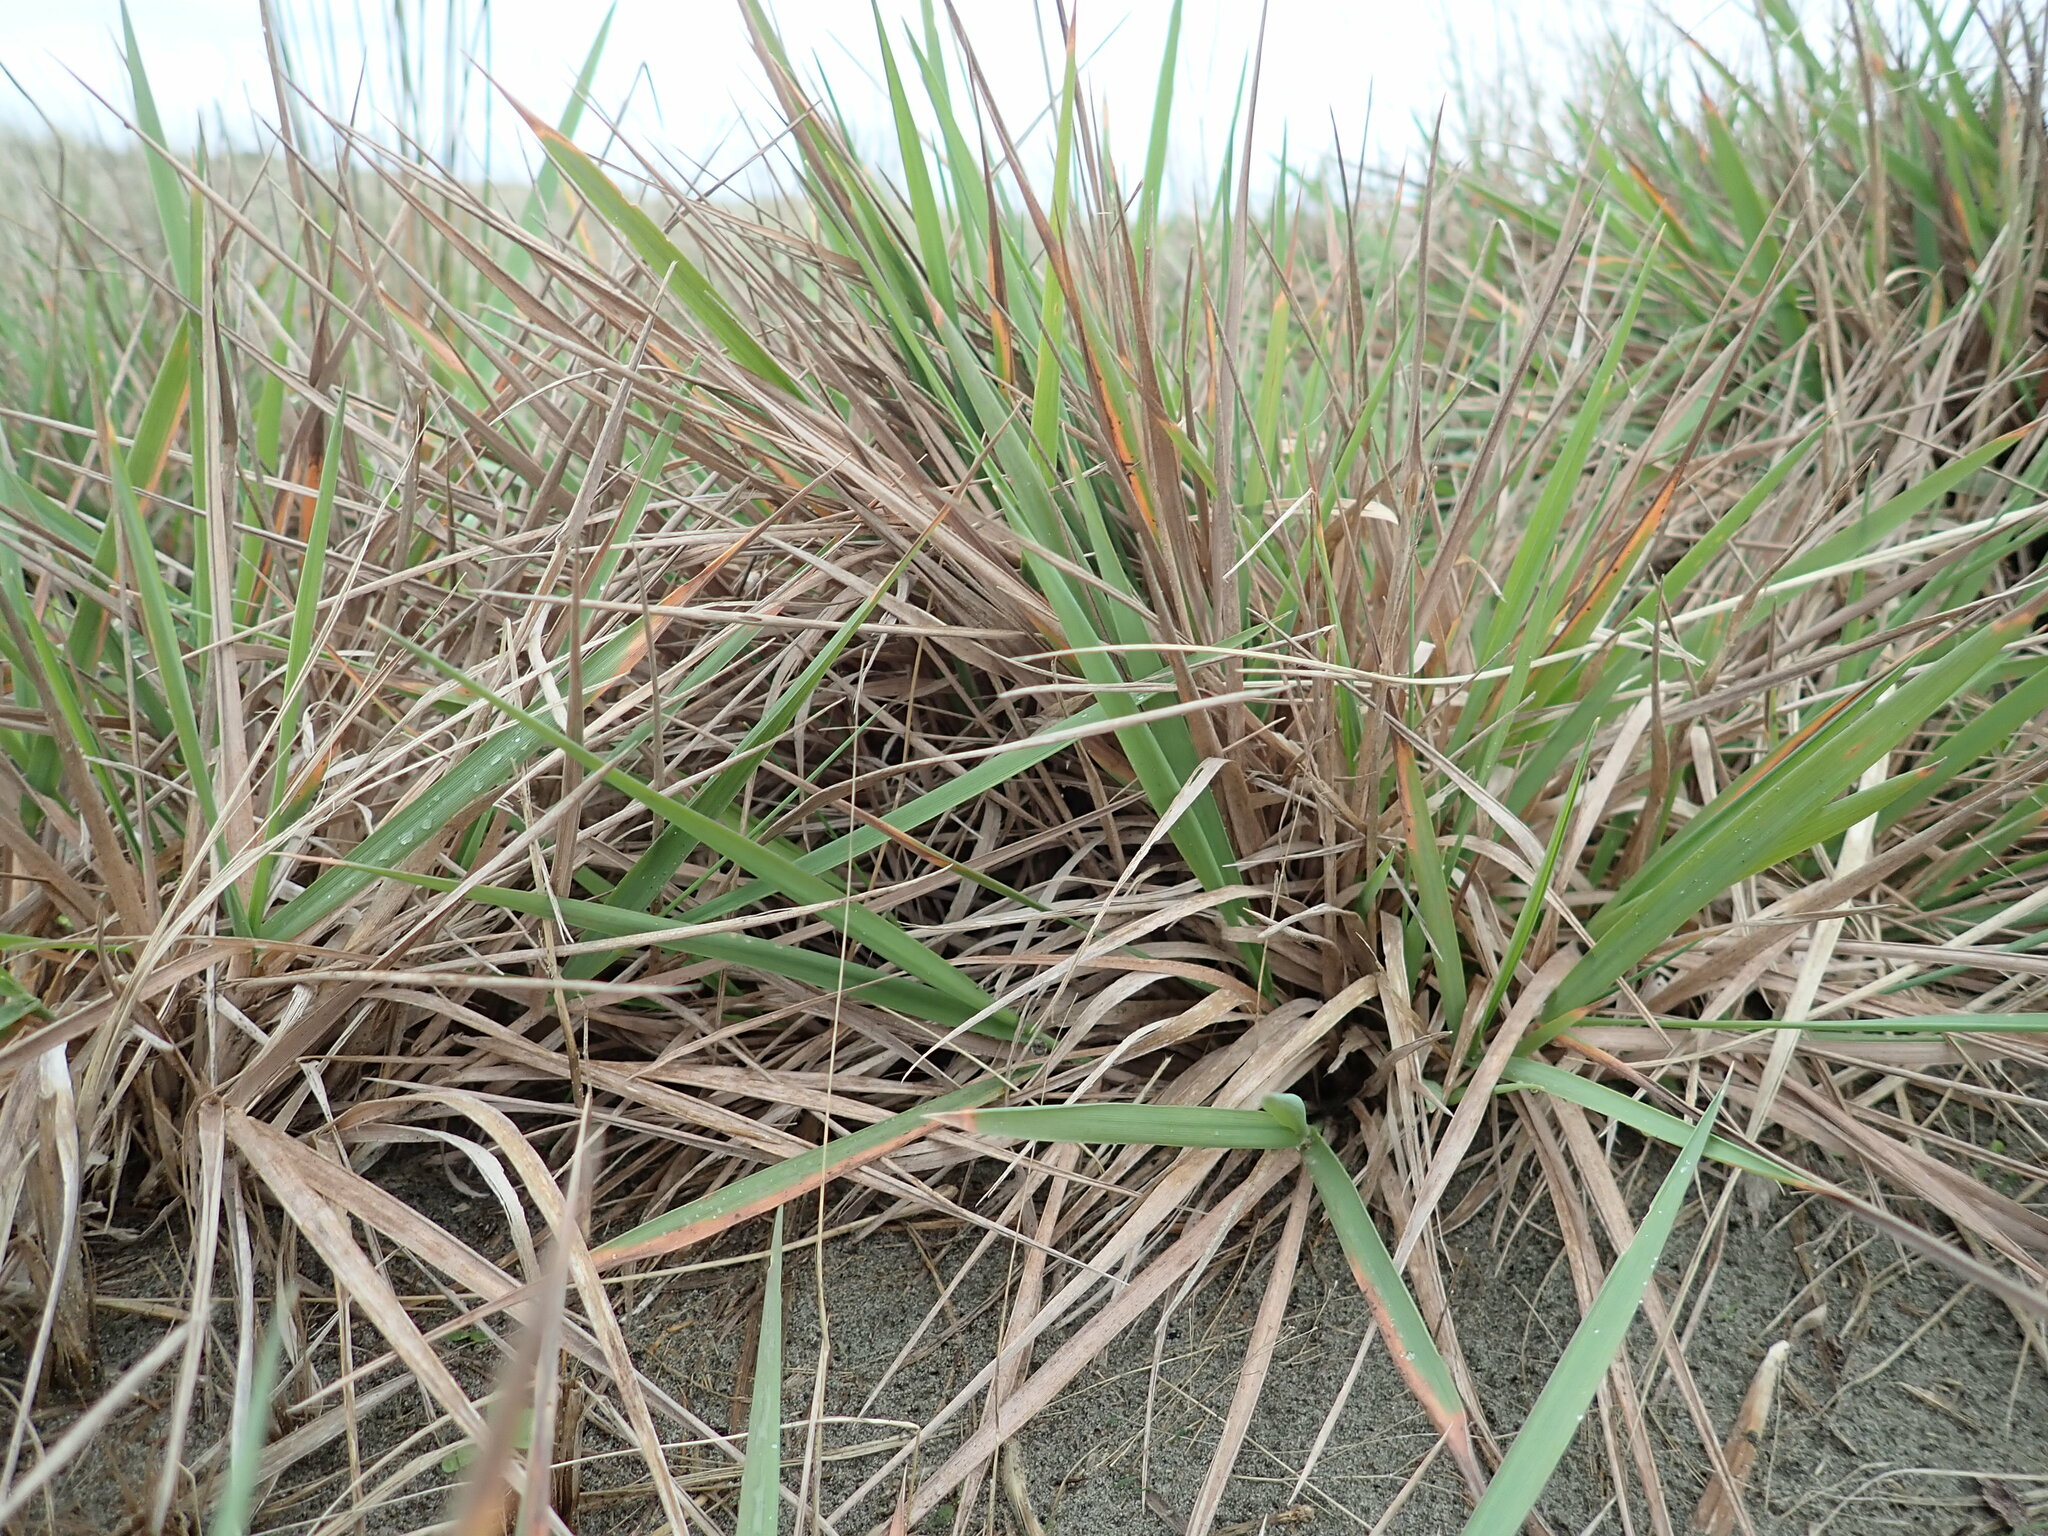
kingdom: Plantae
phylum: Tracheophyta
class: Liliopsida
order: Poales
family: Poaceae
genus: Lachnagrostis
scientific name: Lachnagrostis billardierei
